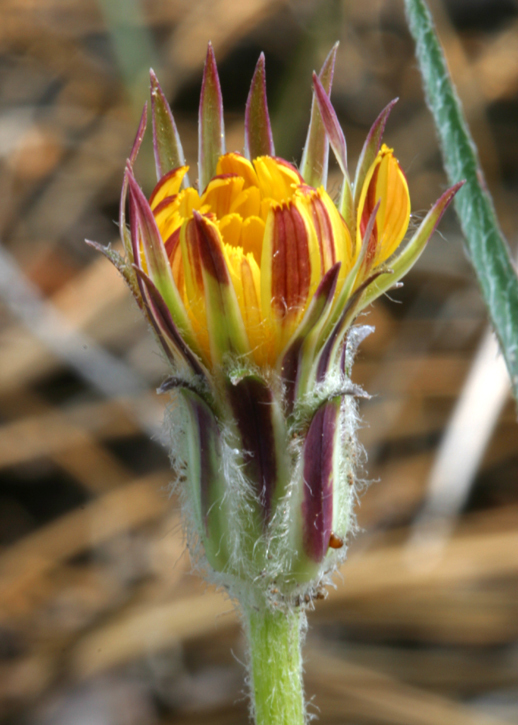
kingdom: Plantae
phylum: Tracheophyta
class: Magnoliopsida
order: Asterales
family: Asteraceae
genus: Agoseris
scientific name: Agoseris retrorsa
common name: Spearleaf agoseris
